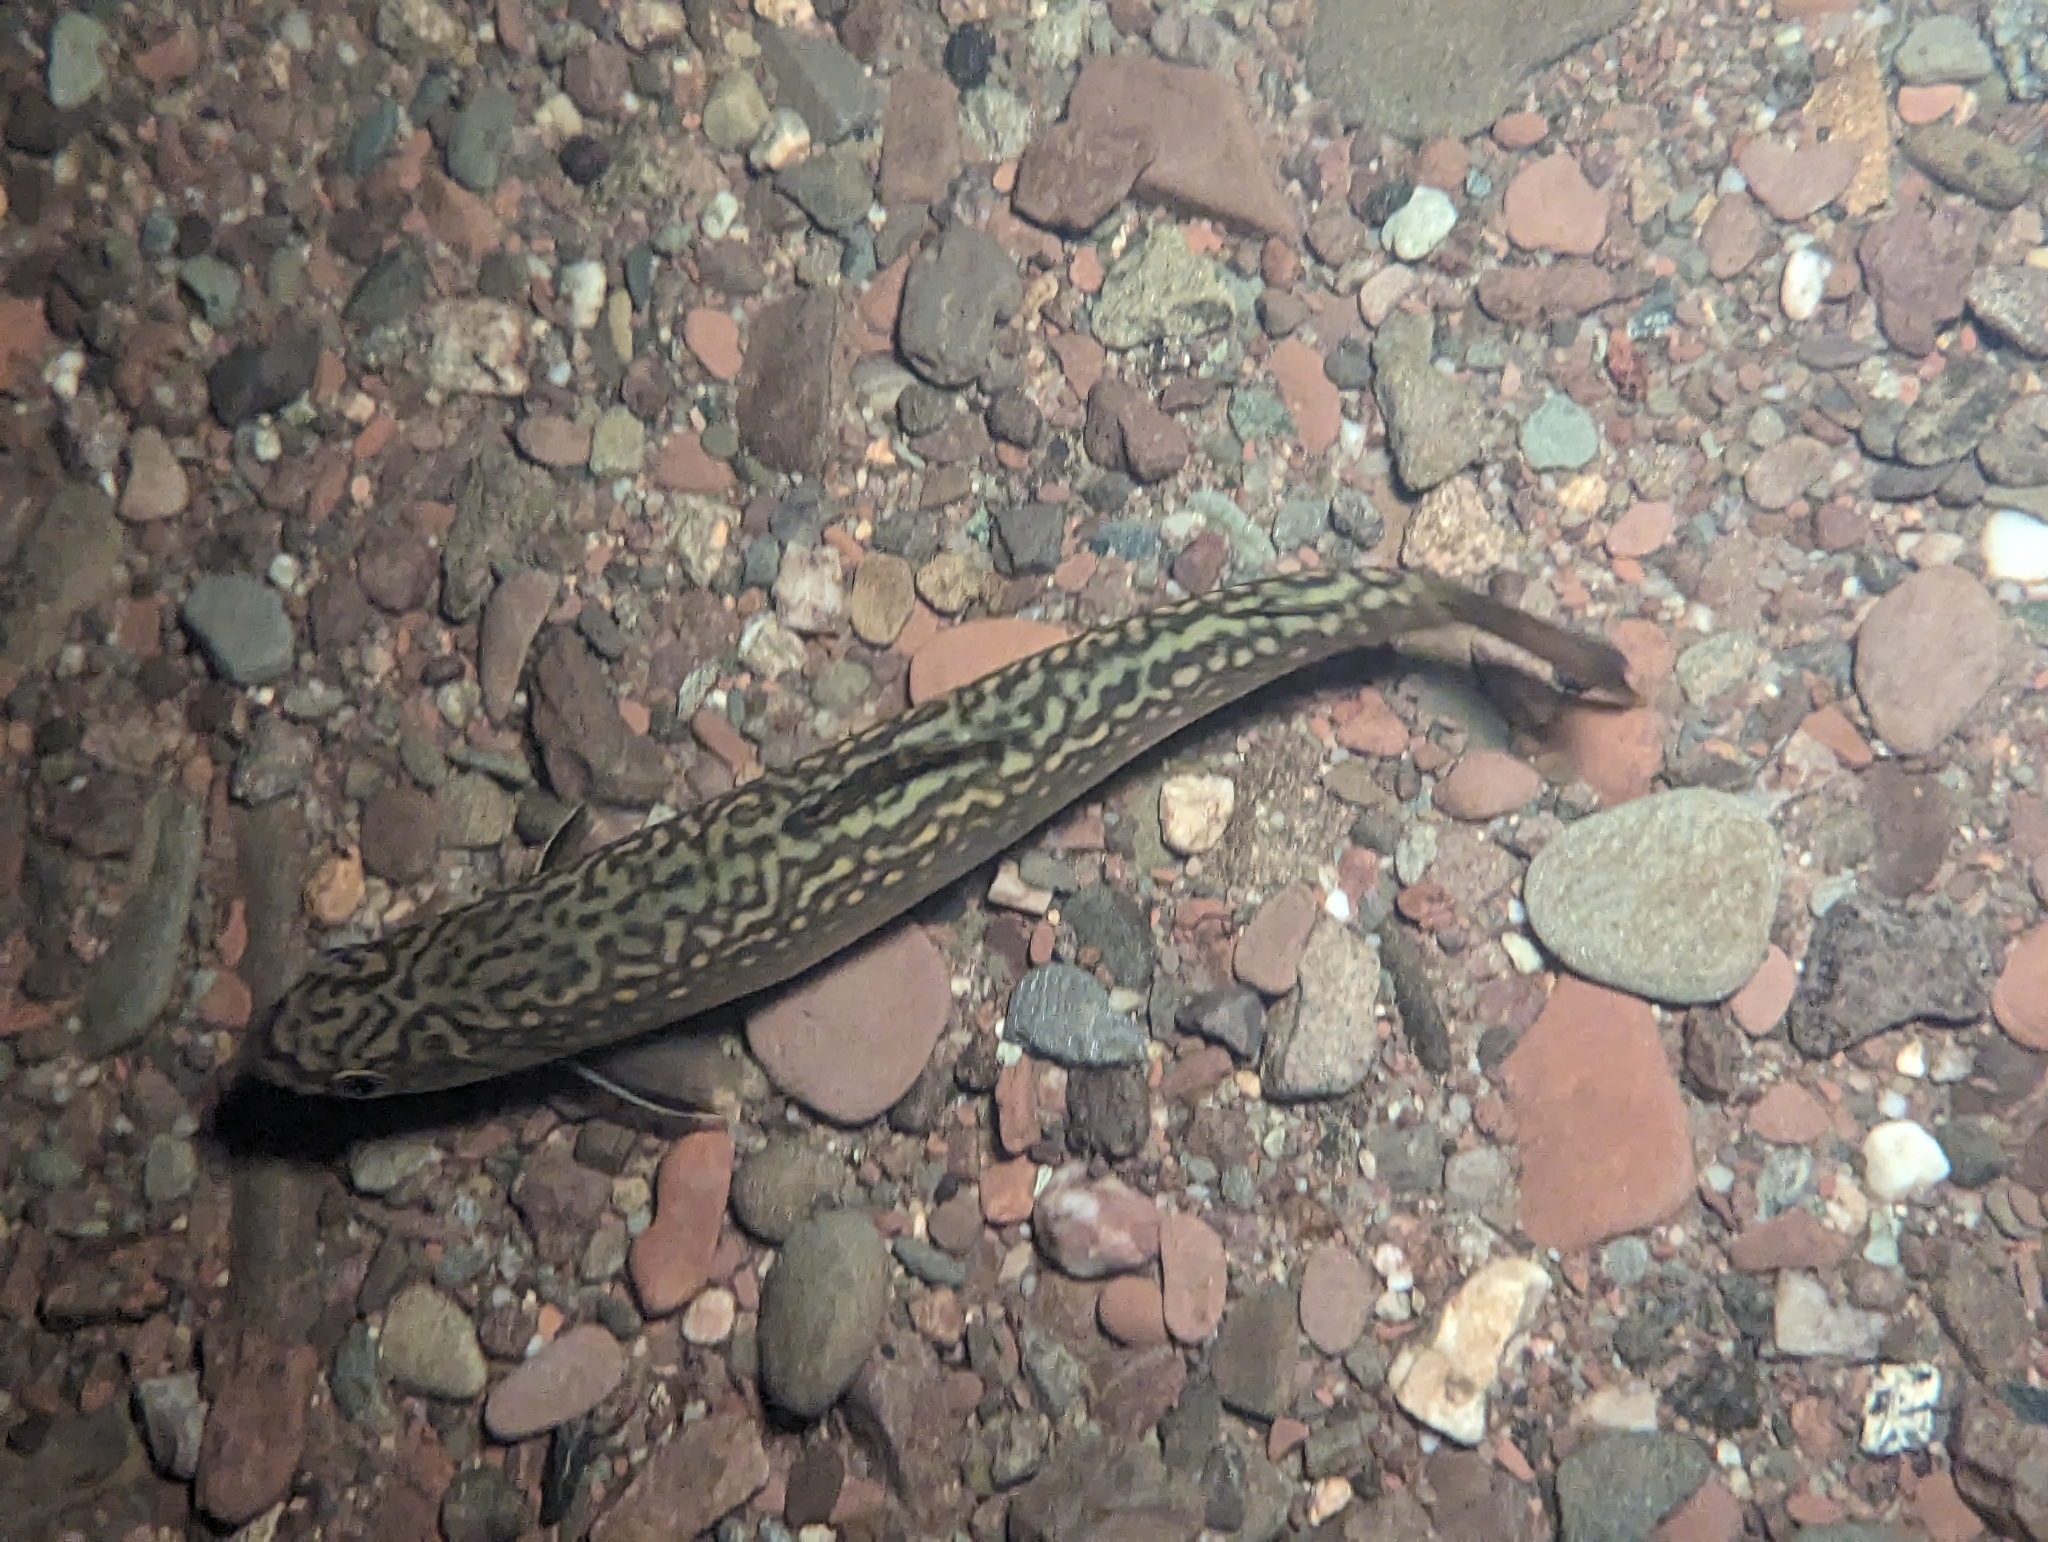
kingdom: Animalia
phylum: Chordata
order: Salmoniformes
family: Salmonidae
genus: Salvelinus
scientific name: Salvelinus fontinalis
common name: Brook trout
